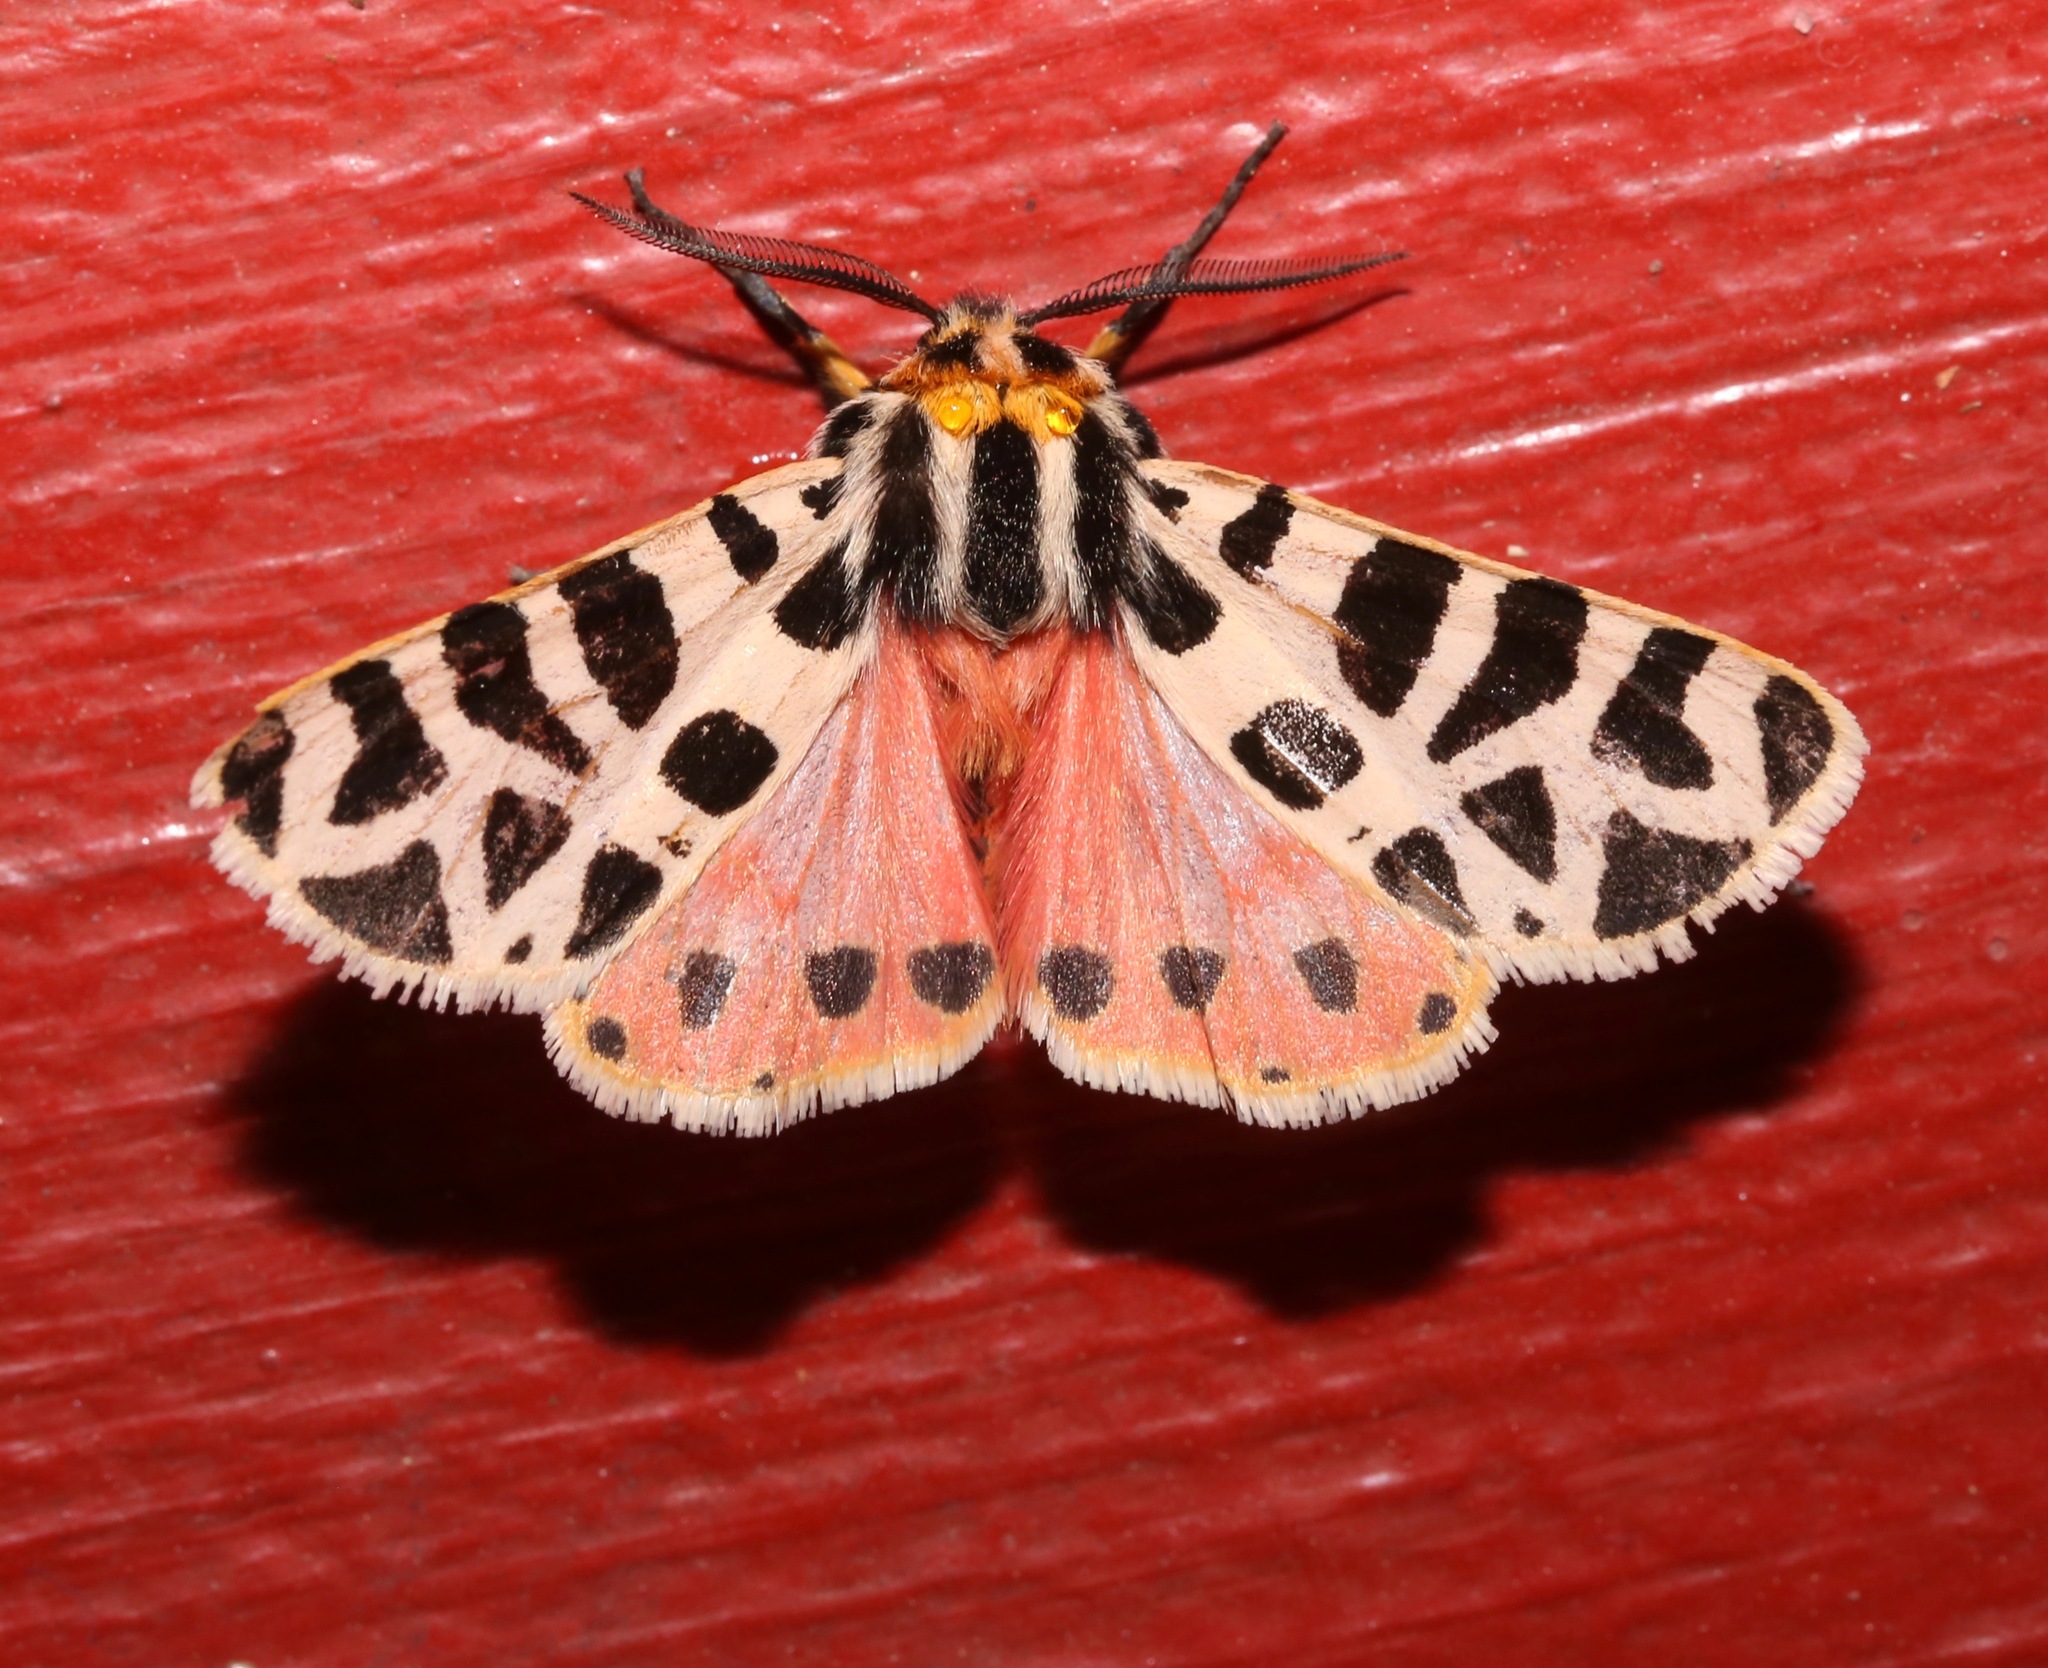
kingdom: Animalia
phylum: Arthropoda
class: Insecta
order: Lepidoptera
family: Erebidae
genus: Apantesis
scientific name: Apantesis incorrupta
